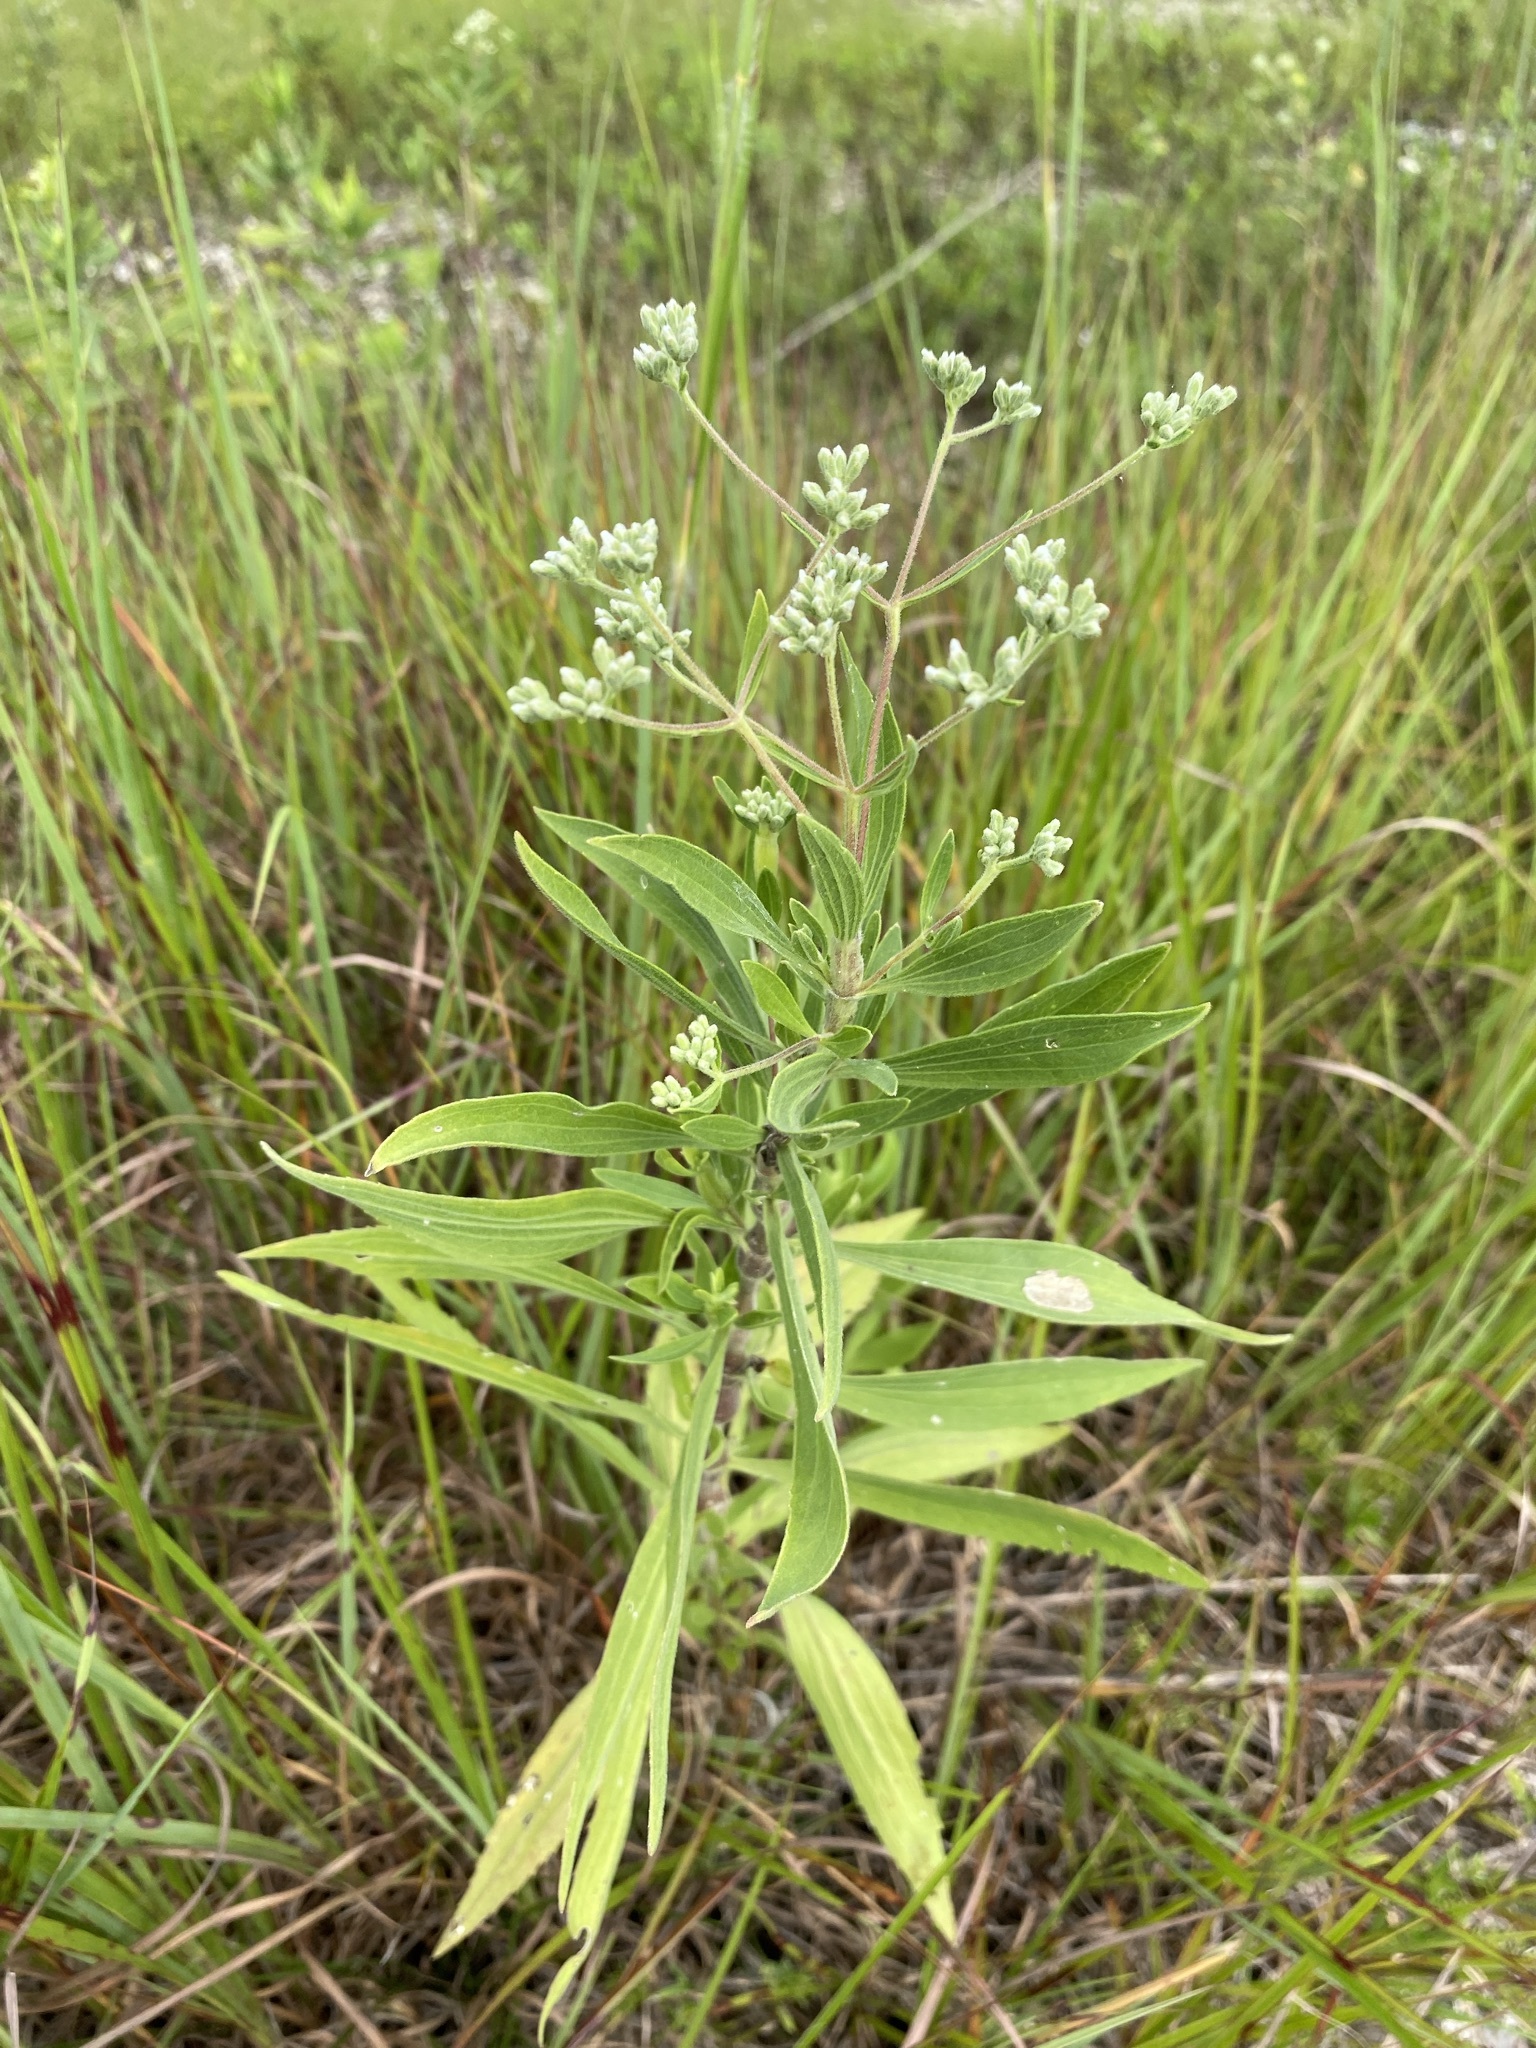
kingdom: Plantae
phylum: Tracheophyta
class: Magnoliopsida
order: Asterales
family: Asteraceae
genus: Eupatorium
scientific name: Eupatorium altissimum
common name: Tall thoroughwort
